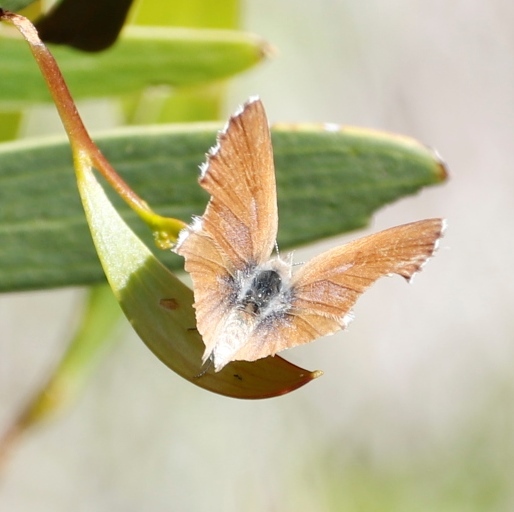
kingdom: Animalia
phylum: Arthropoda
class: Insecta
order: Lepidoptera
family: Lycaenidae
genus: Cacyreus
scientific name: Cacyreus fracta
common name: Water bronze
